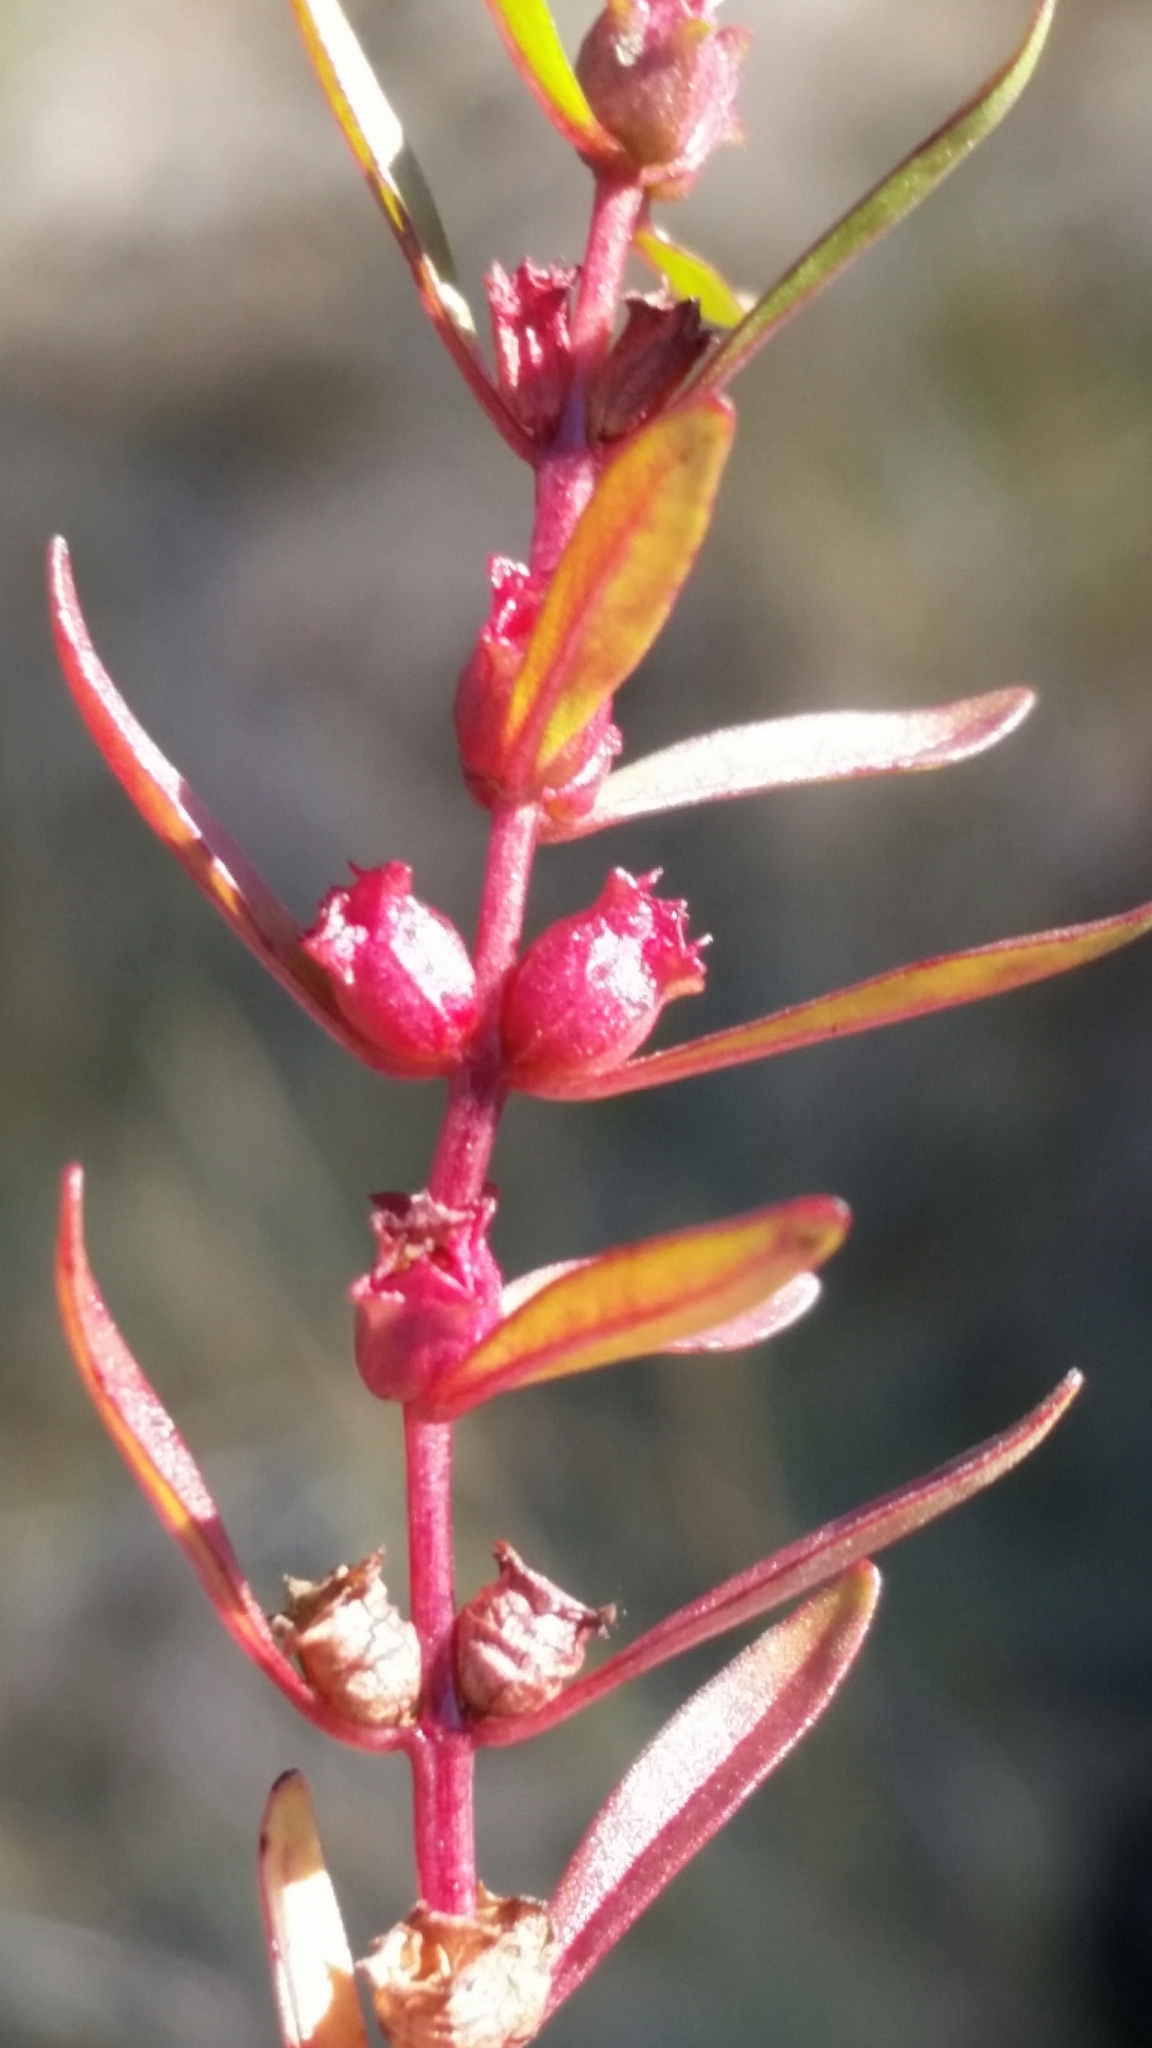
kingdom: Plantae
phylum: Tracheophyta
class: Magnoliopsida
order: Myrtales
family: Lythraceae
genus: Rotala
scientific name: Rotala ramosior
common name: Lowland rotala
